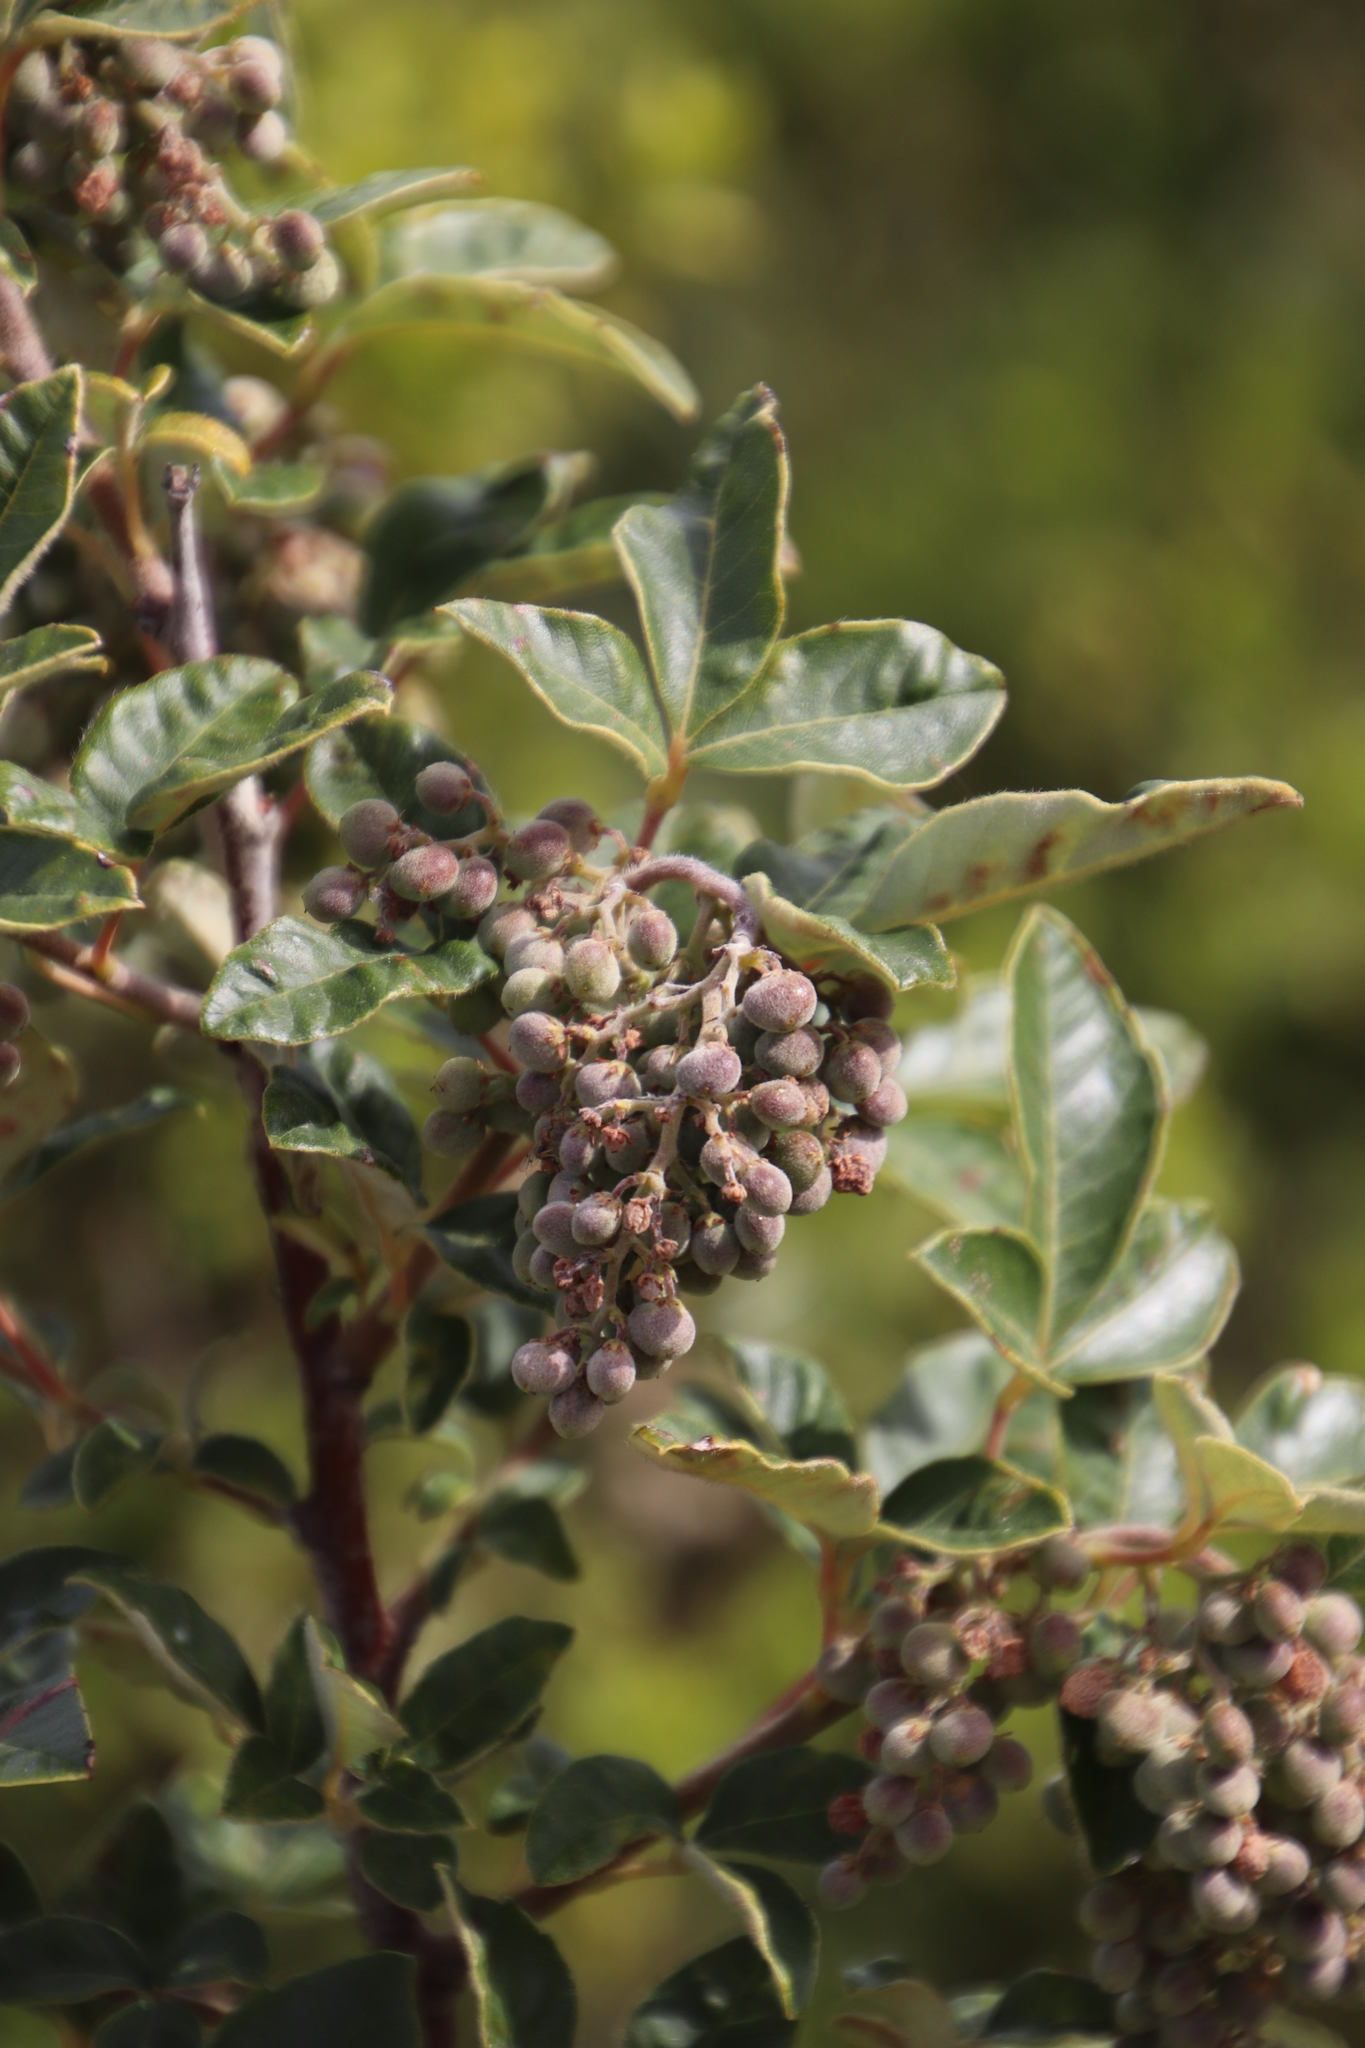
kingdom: Plantae
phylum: Tracheophyta
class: Magnoliopsida
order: Sapindales
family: Anacardiaceae
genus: Searsia
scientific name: Searsia tomentosa
